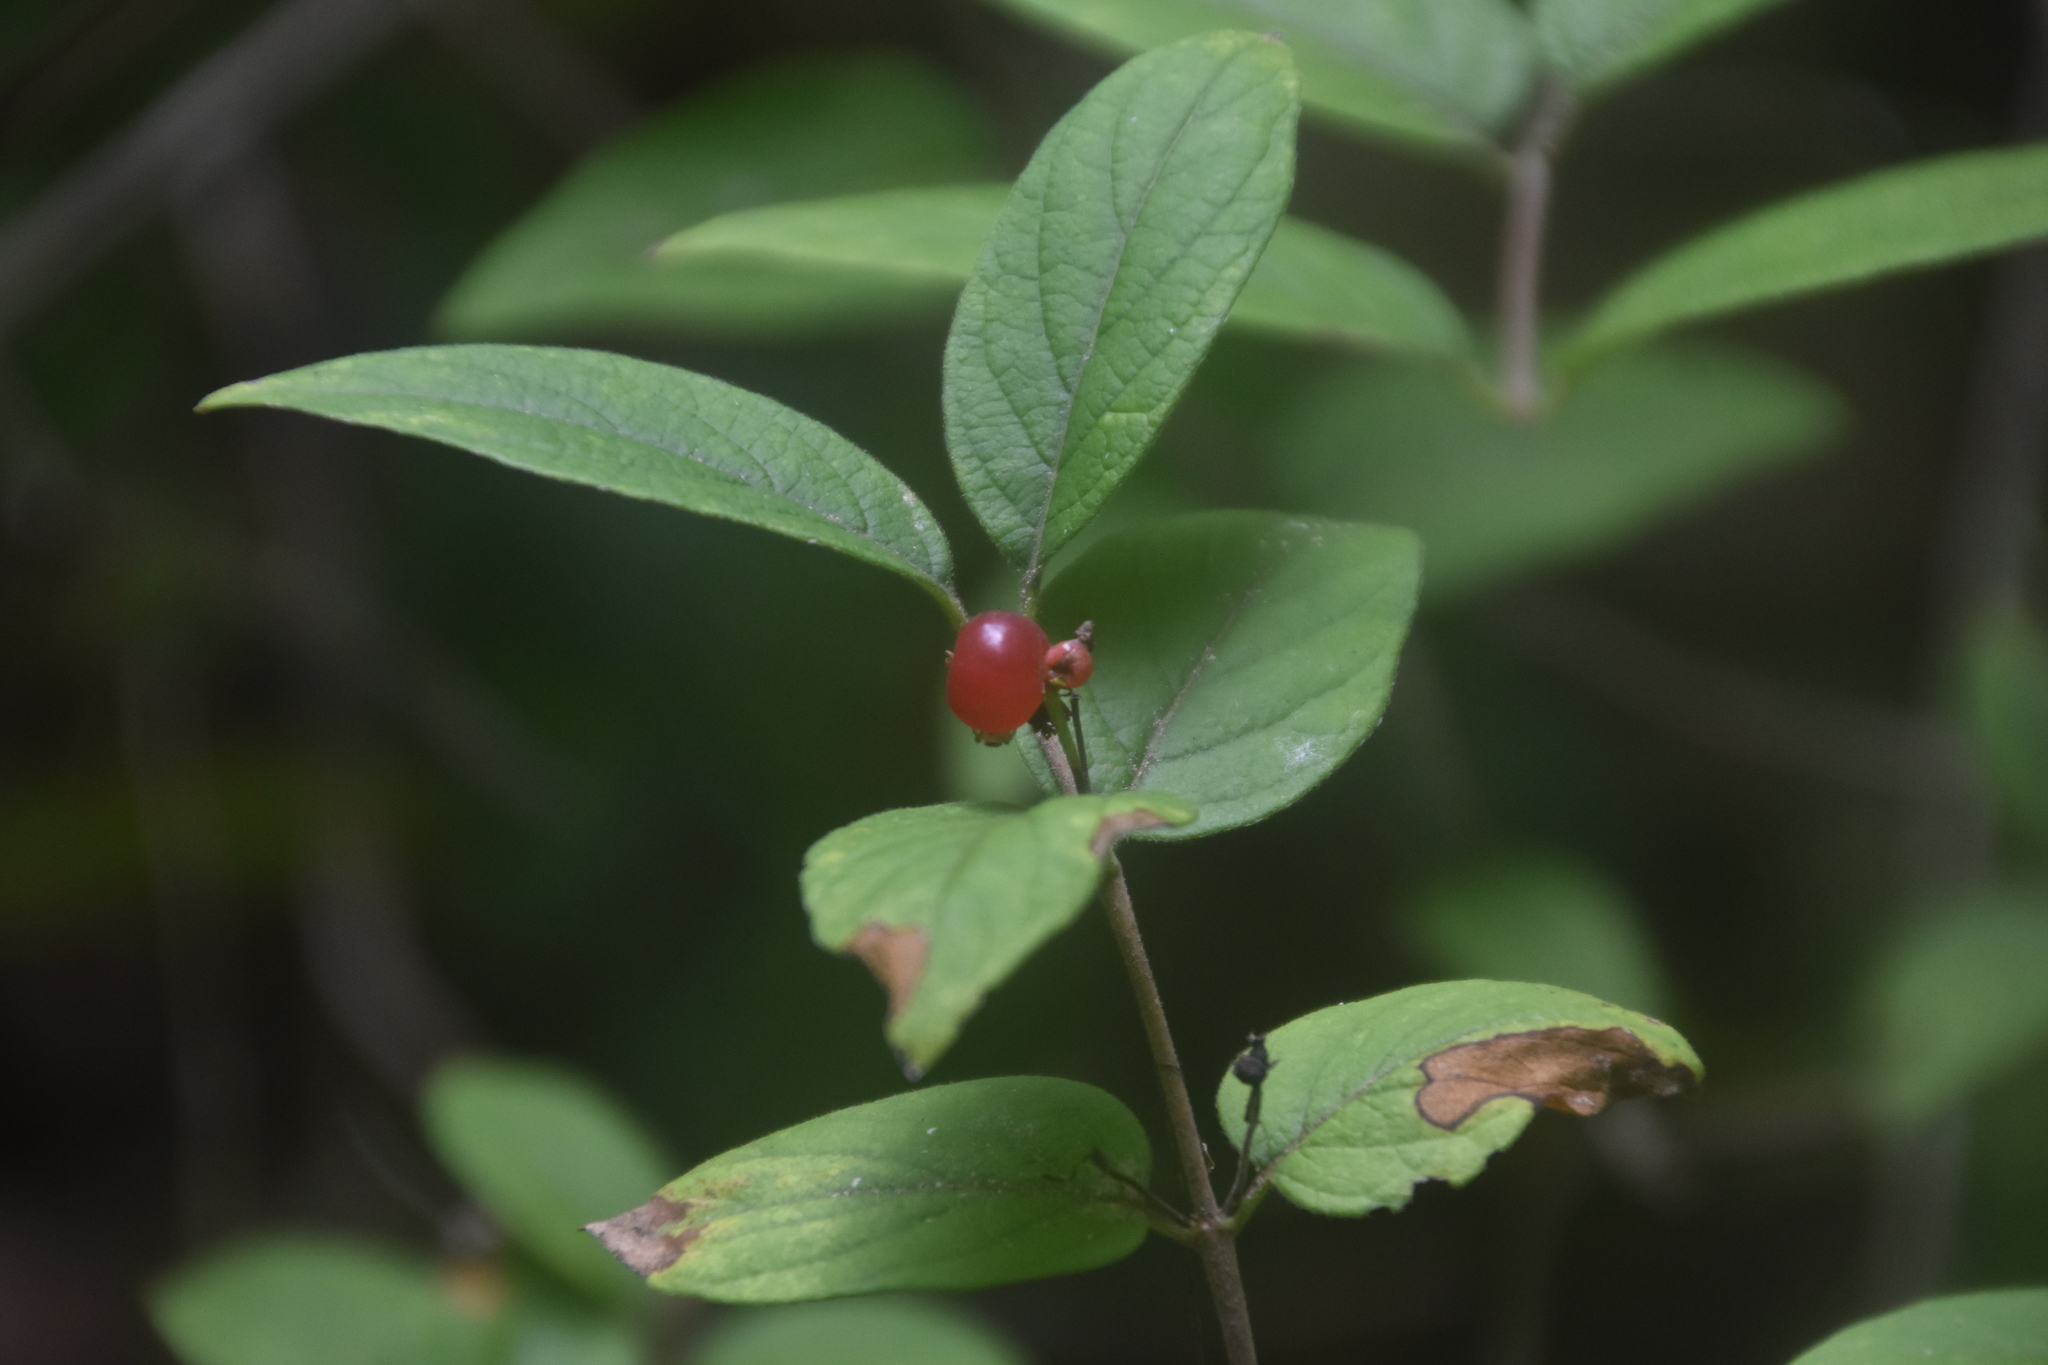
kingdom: Plantae
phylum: Tracheophyta
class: Magnoliopsida
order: Dipsacales
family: Caprifoliaceae
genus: Lonicera
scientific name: Lonicera bella
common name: Bell's honeysuckle
